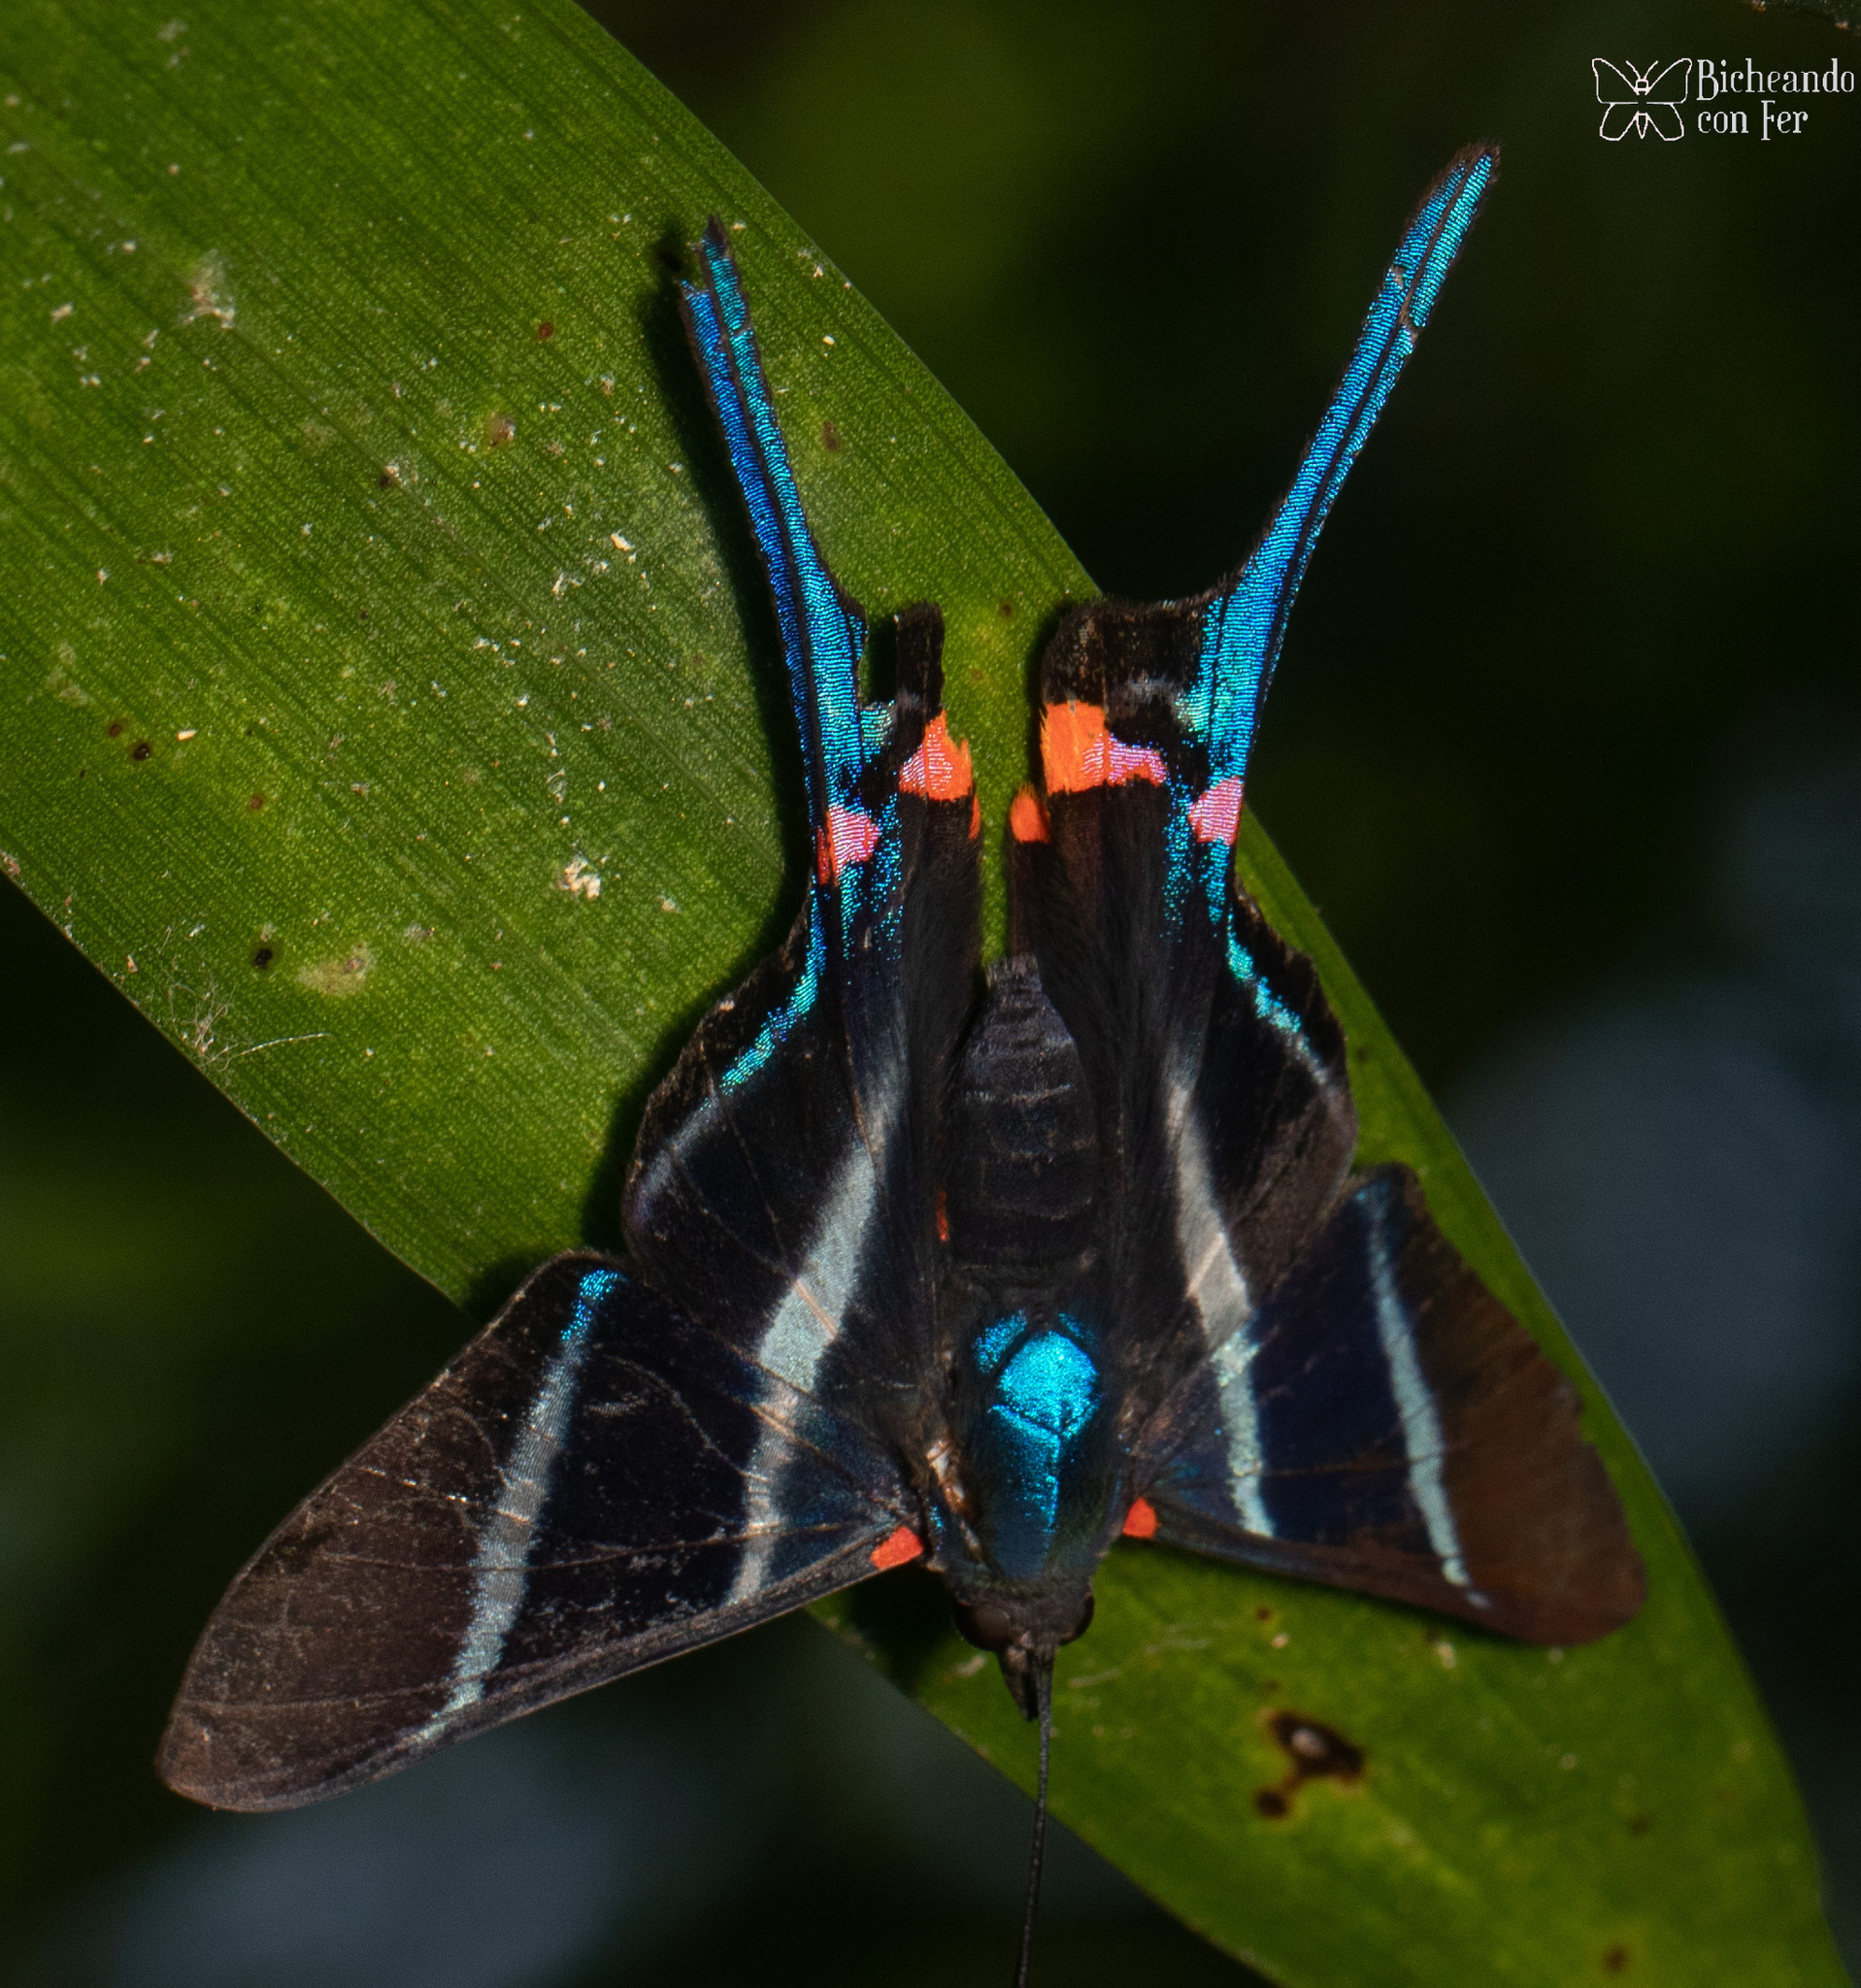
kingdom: Animalia
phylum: Arthropoda
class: Insecta
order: Lepidoptera
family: Riodinidae
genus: Rhetus
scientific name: Rhetus arcius
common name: Long-tailed metalmark
